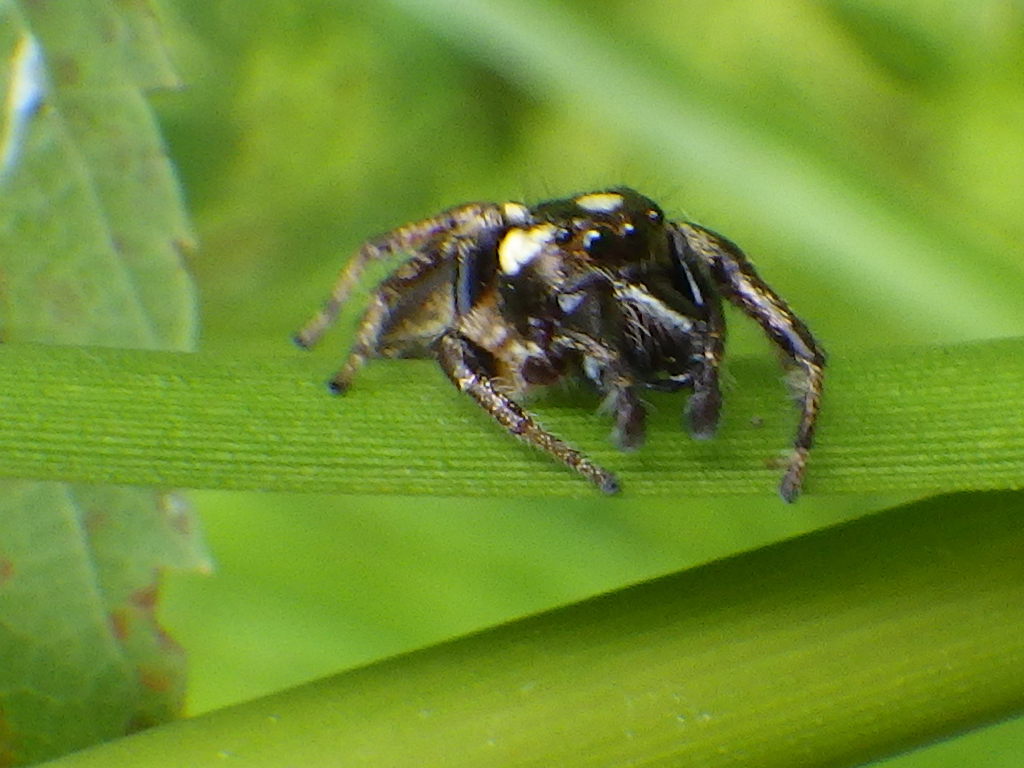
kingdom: Animalia
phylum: Arthropoda
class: Arachnida
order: Araneae
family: Salticidae
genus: Eris
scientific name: Eris militaris
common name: Bronze jumper
